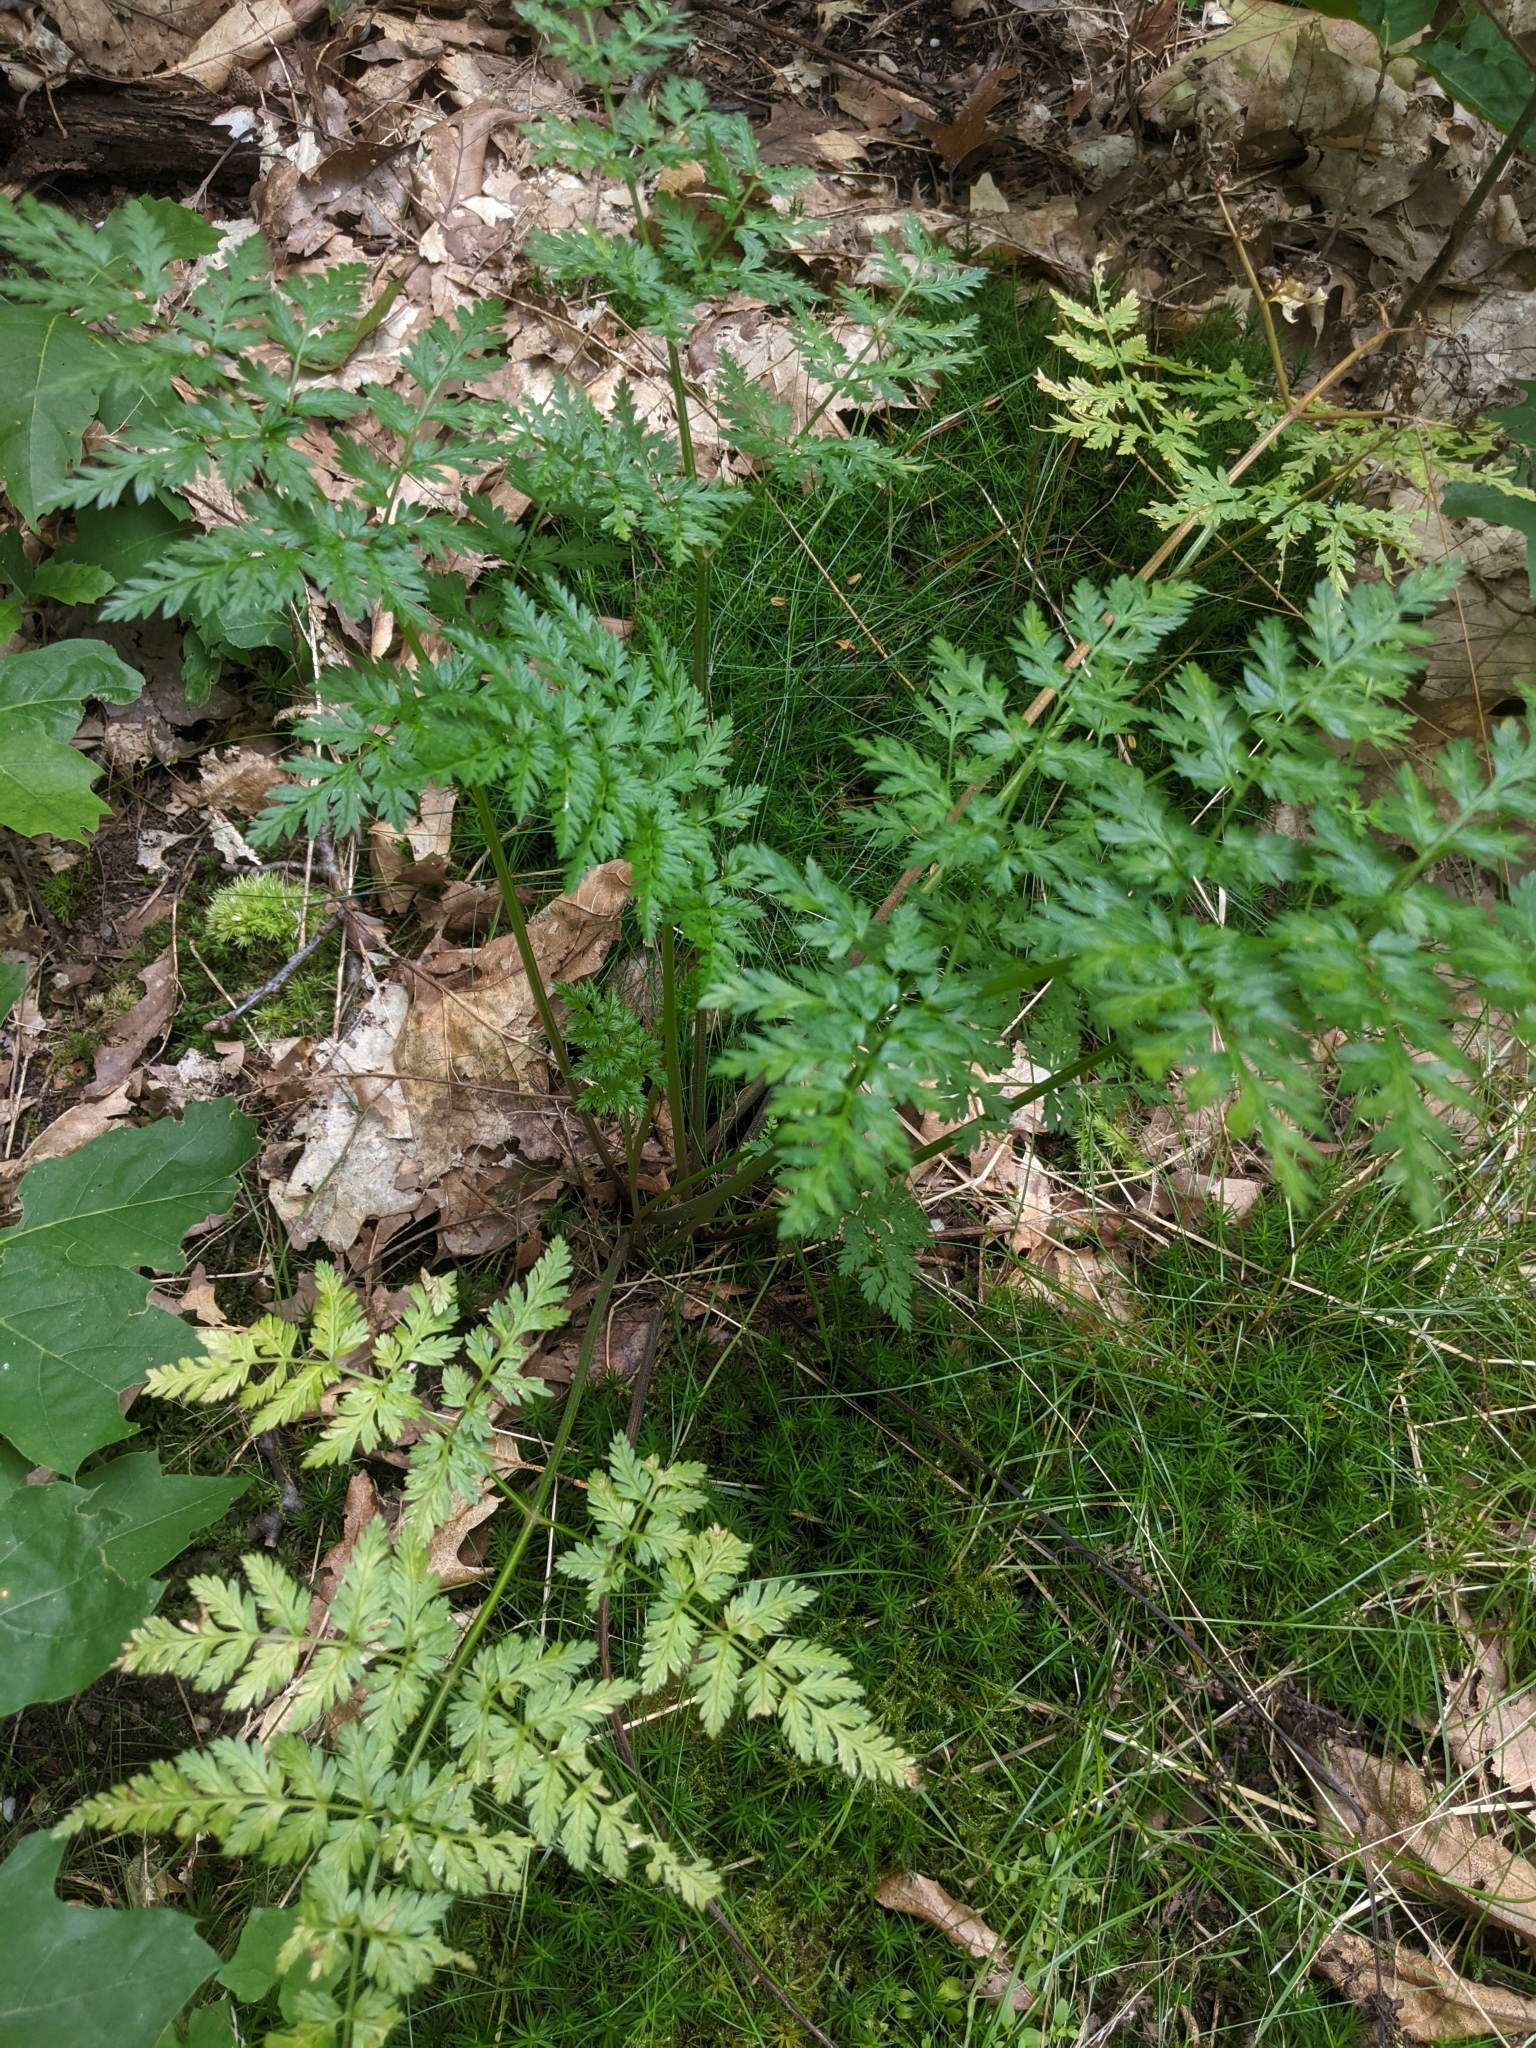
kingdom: Plantae
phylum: Tracheophyta
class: Magnoliopsida
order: Apiales
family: Apiaceae
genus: Anthriscus
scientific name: Anthriscus sylvestris
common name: Cow parsley
